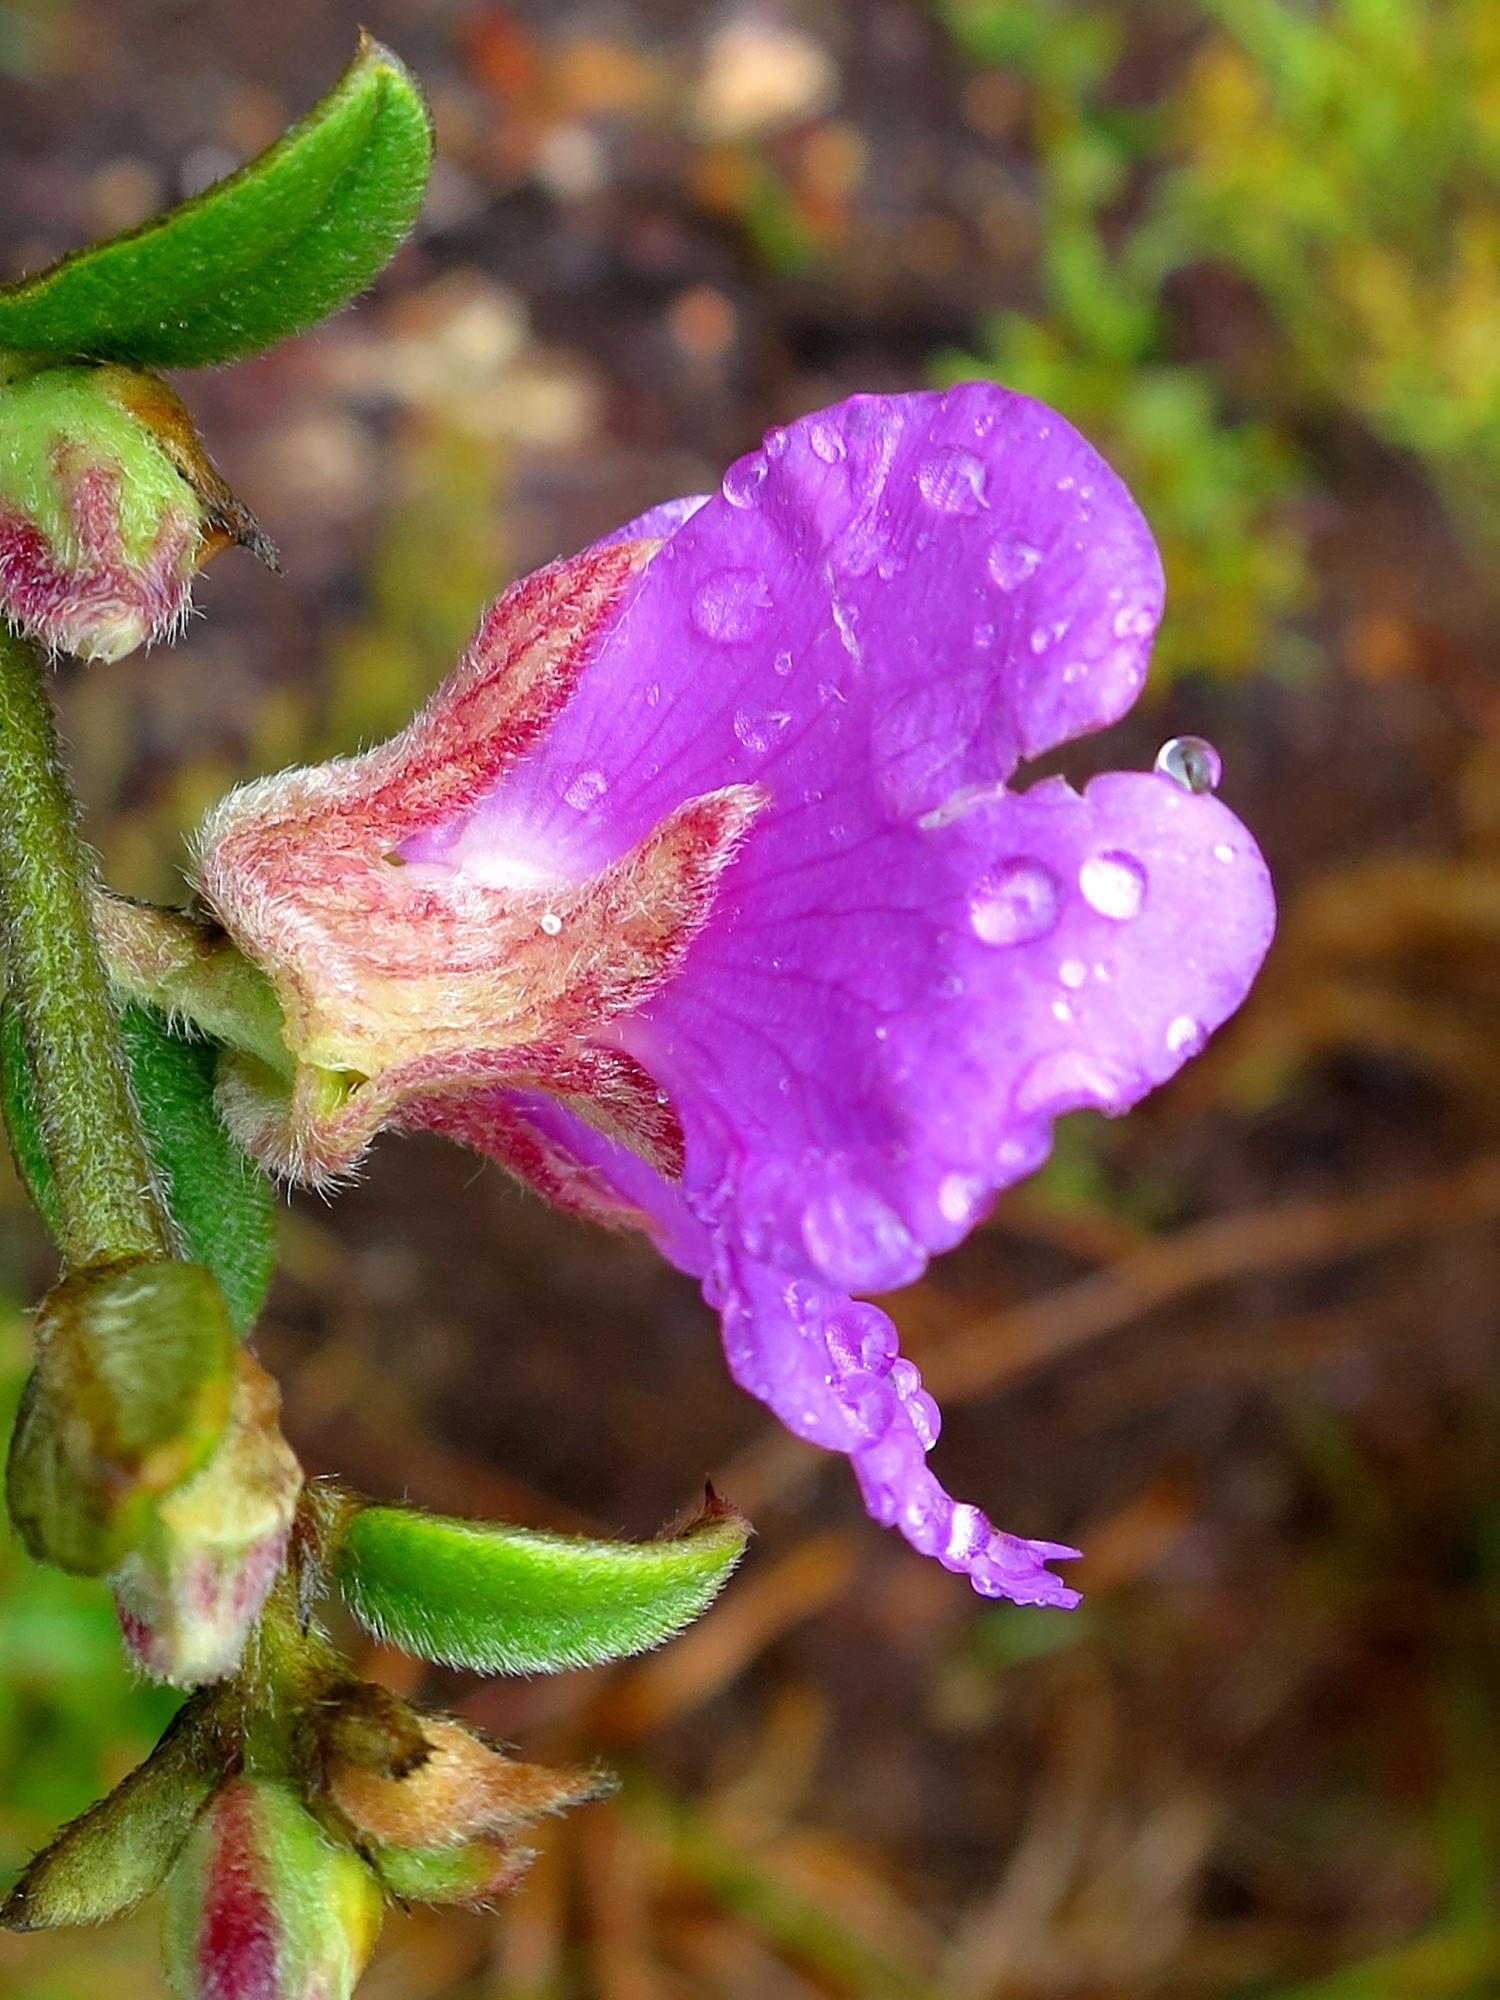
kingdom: Plantae
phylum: Tracheophyta
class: Magnoliopsida
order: Fabales
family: Fabaceae
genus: Podalyria
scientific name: Podalyria burchellii
